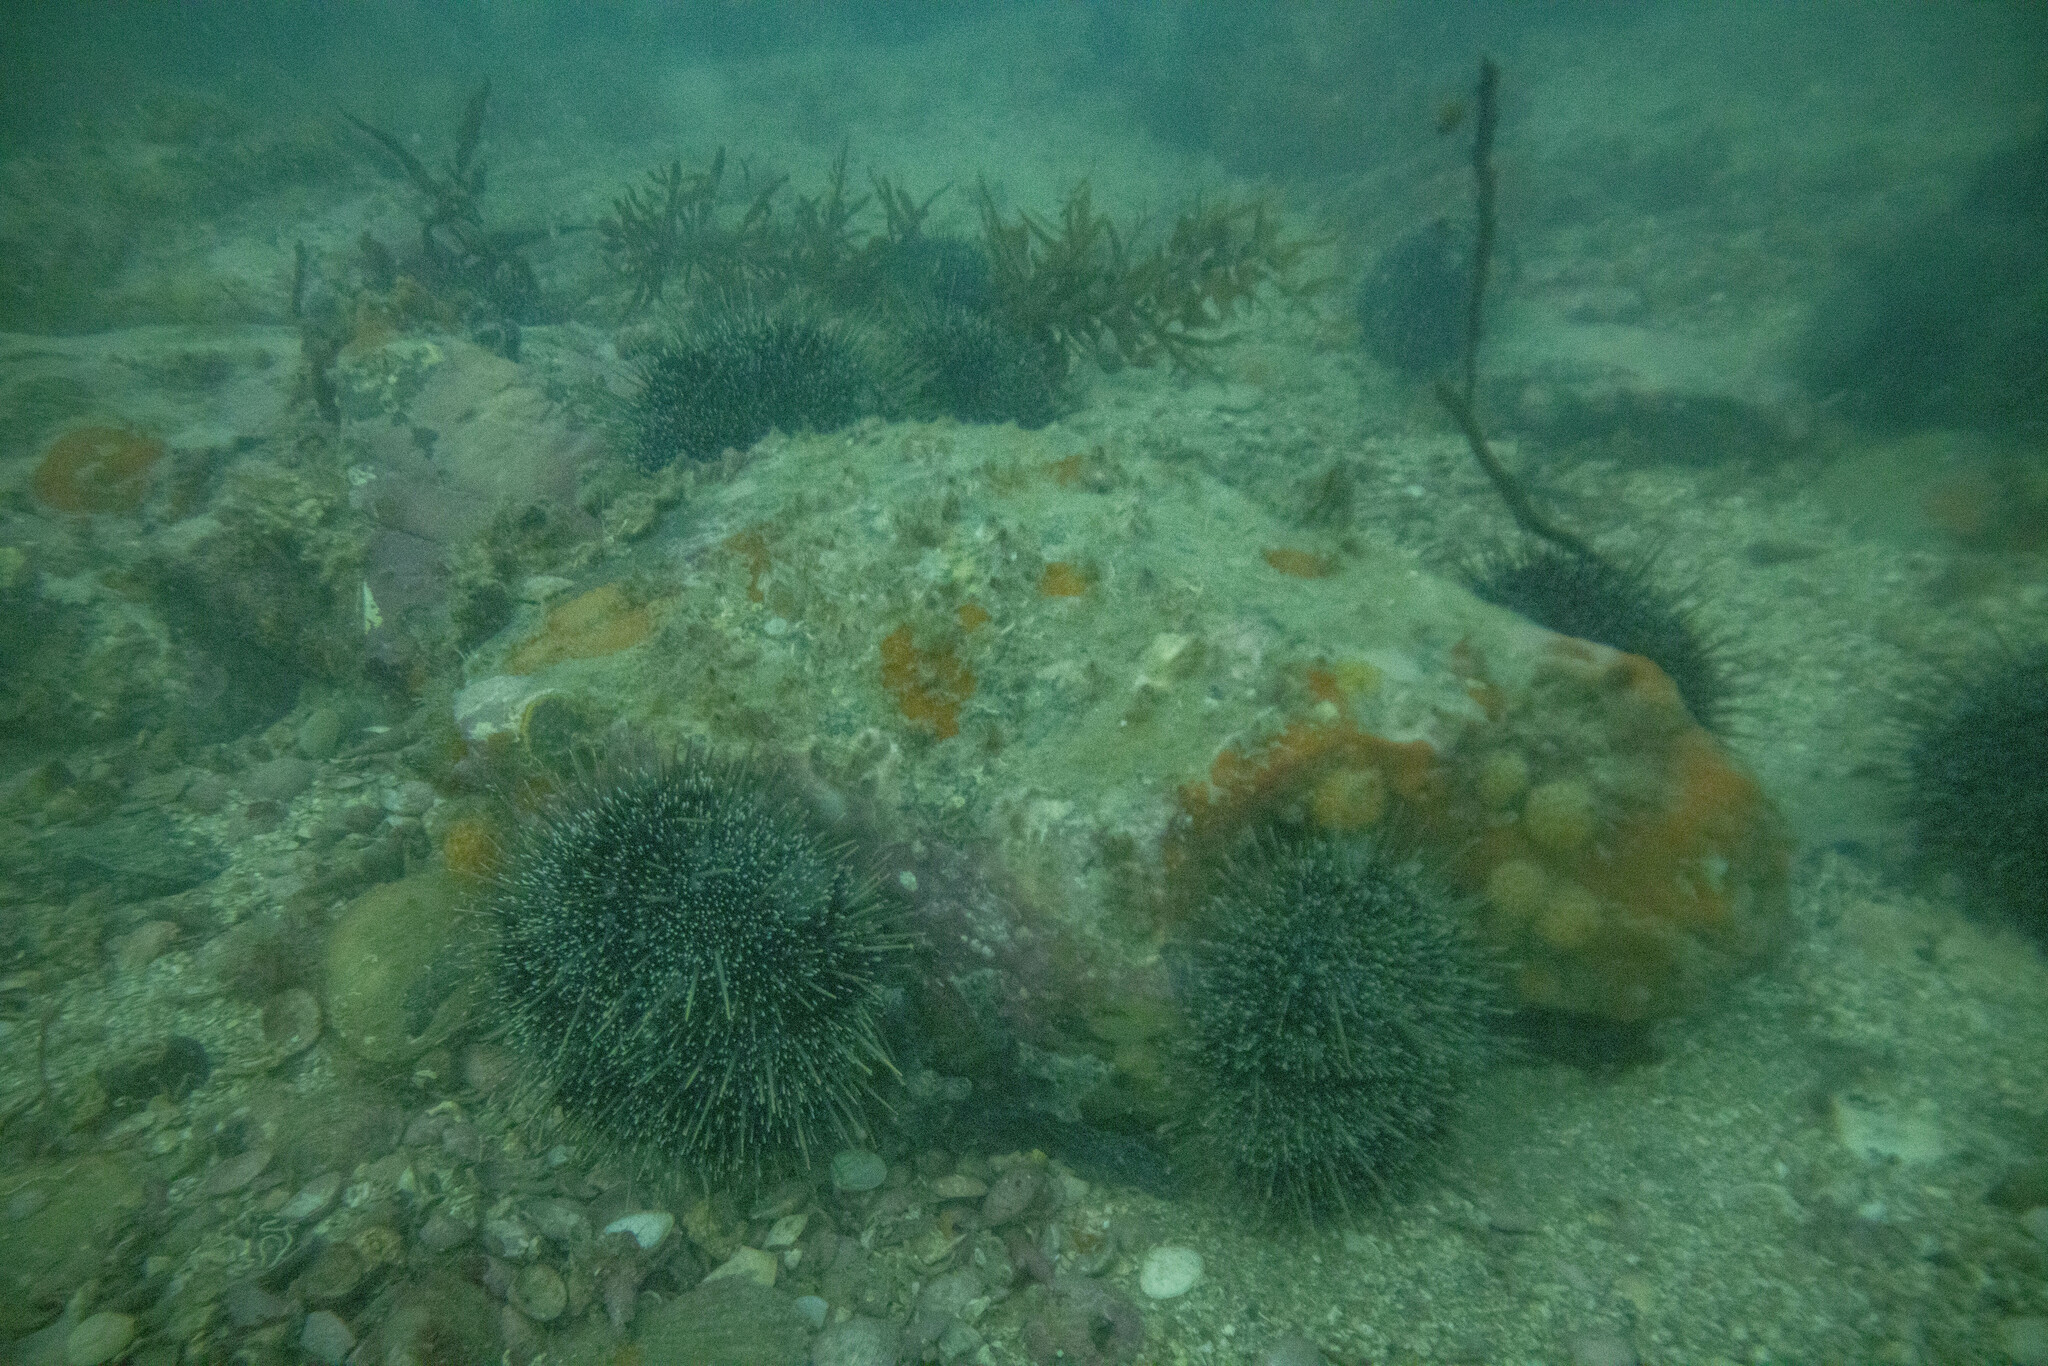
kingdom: Animalia
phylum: Echinodermata
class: Echinoidea
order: Camarodonta
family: Echinometridae
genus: Evechinus
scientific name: Evechinus chloroticus
